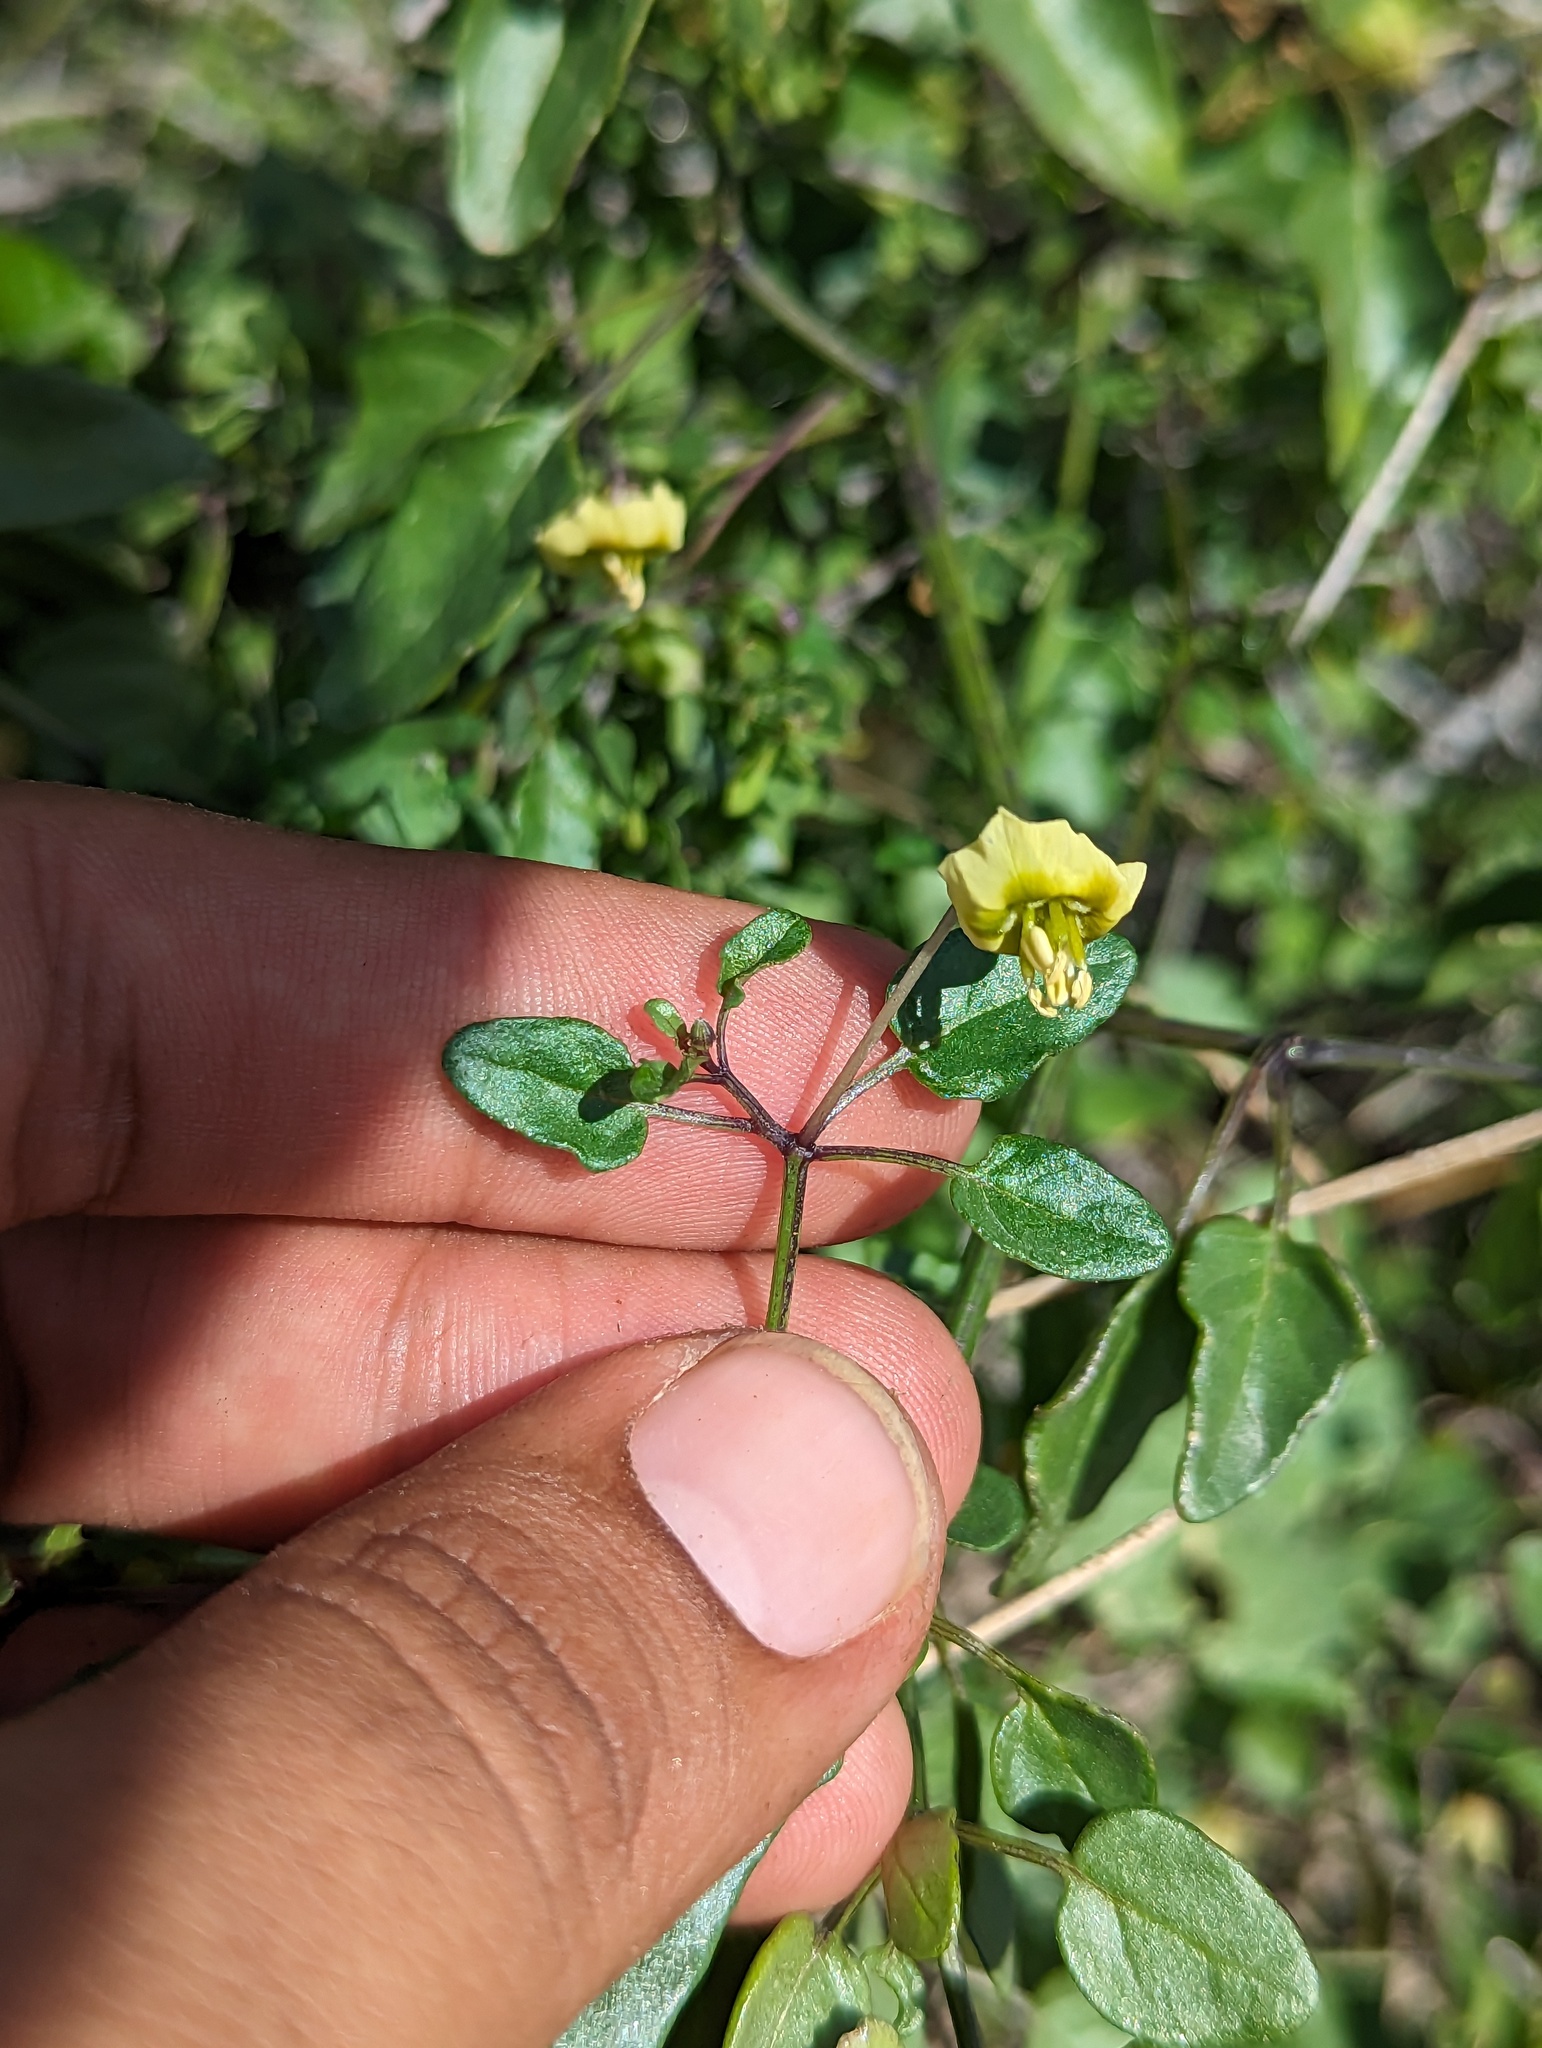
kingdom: Plantae
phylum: Tracheophyta
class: Magnoliopsida
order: Solanales
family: Solanaceae
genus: Physalis
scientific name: Physalis glabra
